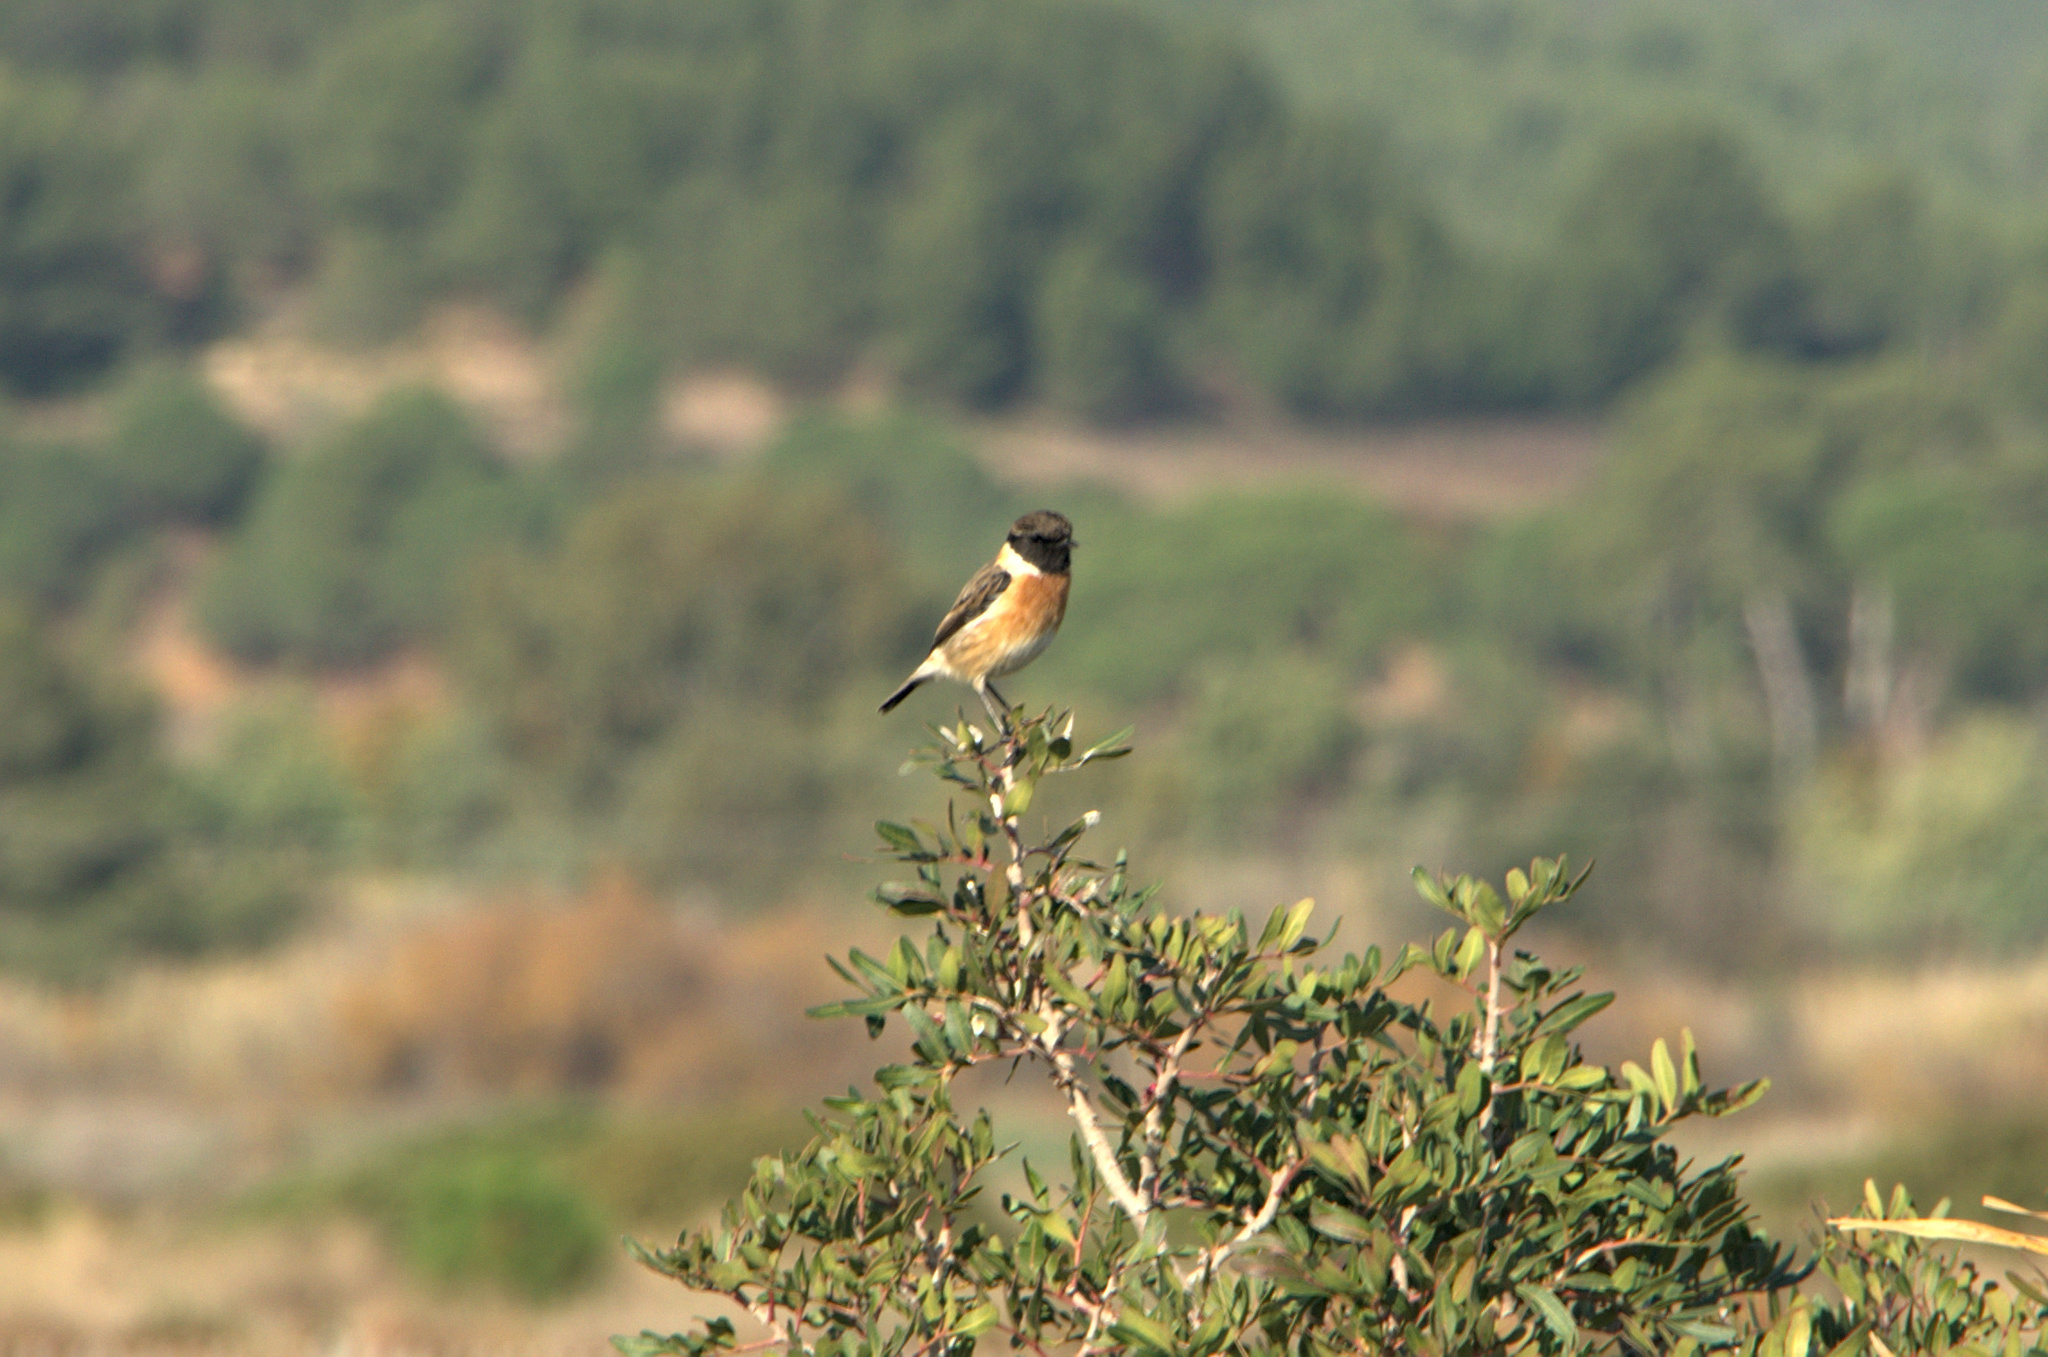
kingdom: Animalia
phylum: Chordata
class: Aves
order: Passeriformes
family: Muscicapidae
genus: Saxicola
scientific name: Saxicola rubicola
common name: European stonechat
